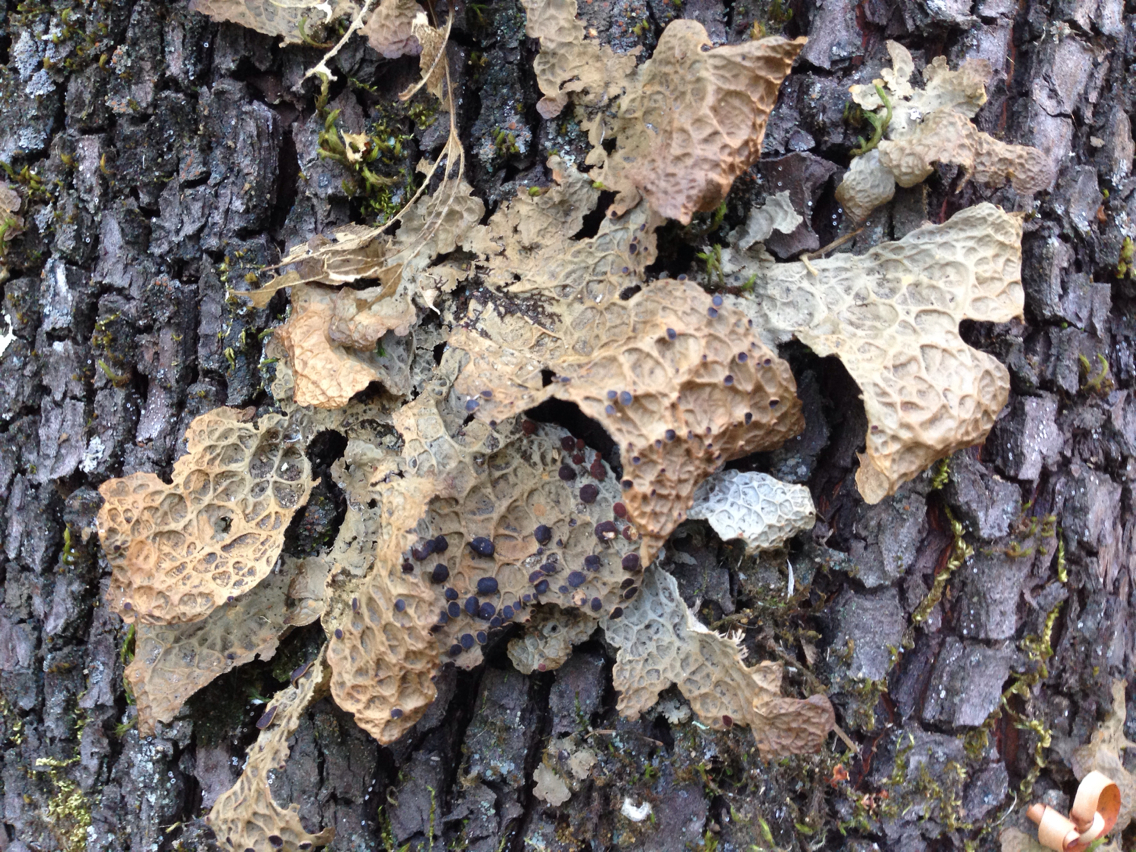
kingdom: Fungi
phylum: Ascomycota
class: Lecanoromycetes
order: Peltigerales
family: Lobariaceae
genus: Lobaria
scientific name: Lobaria anthraspis
